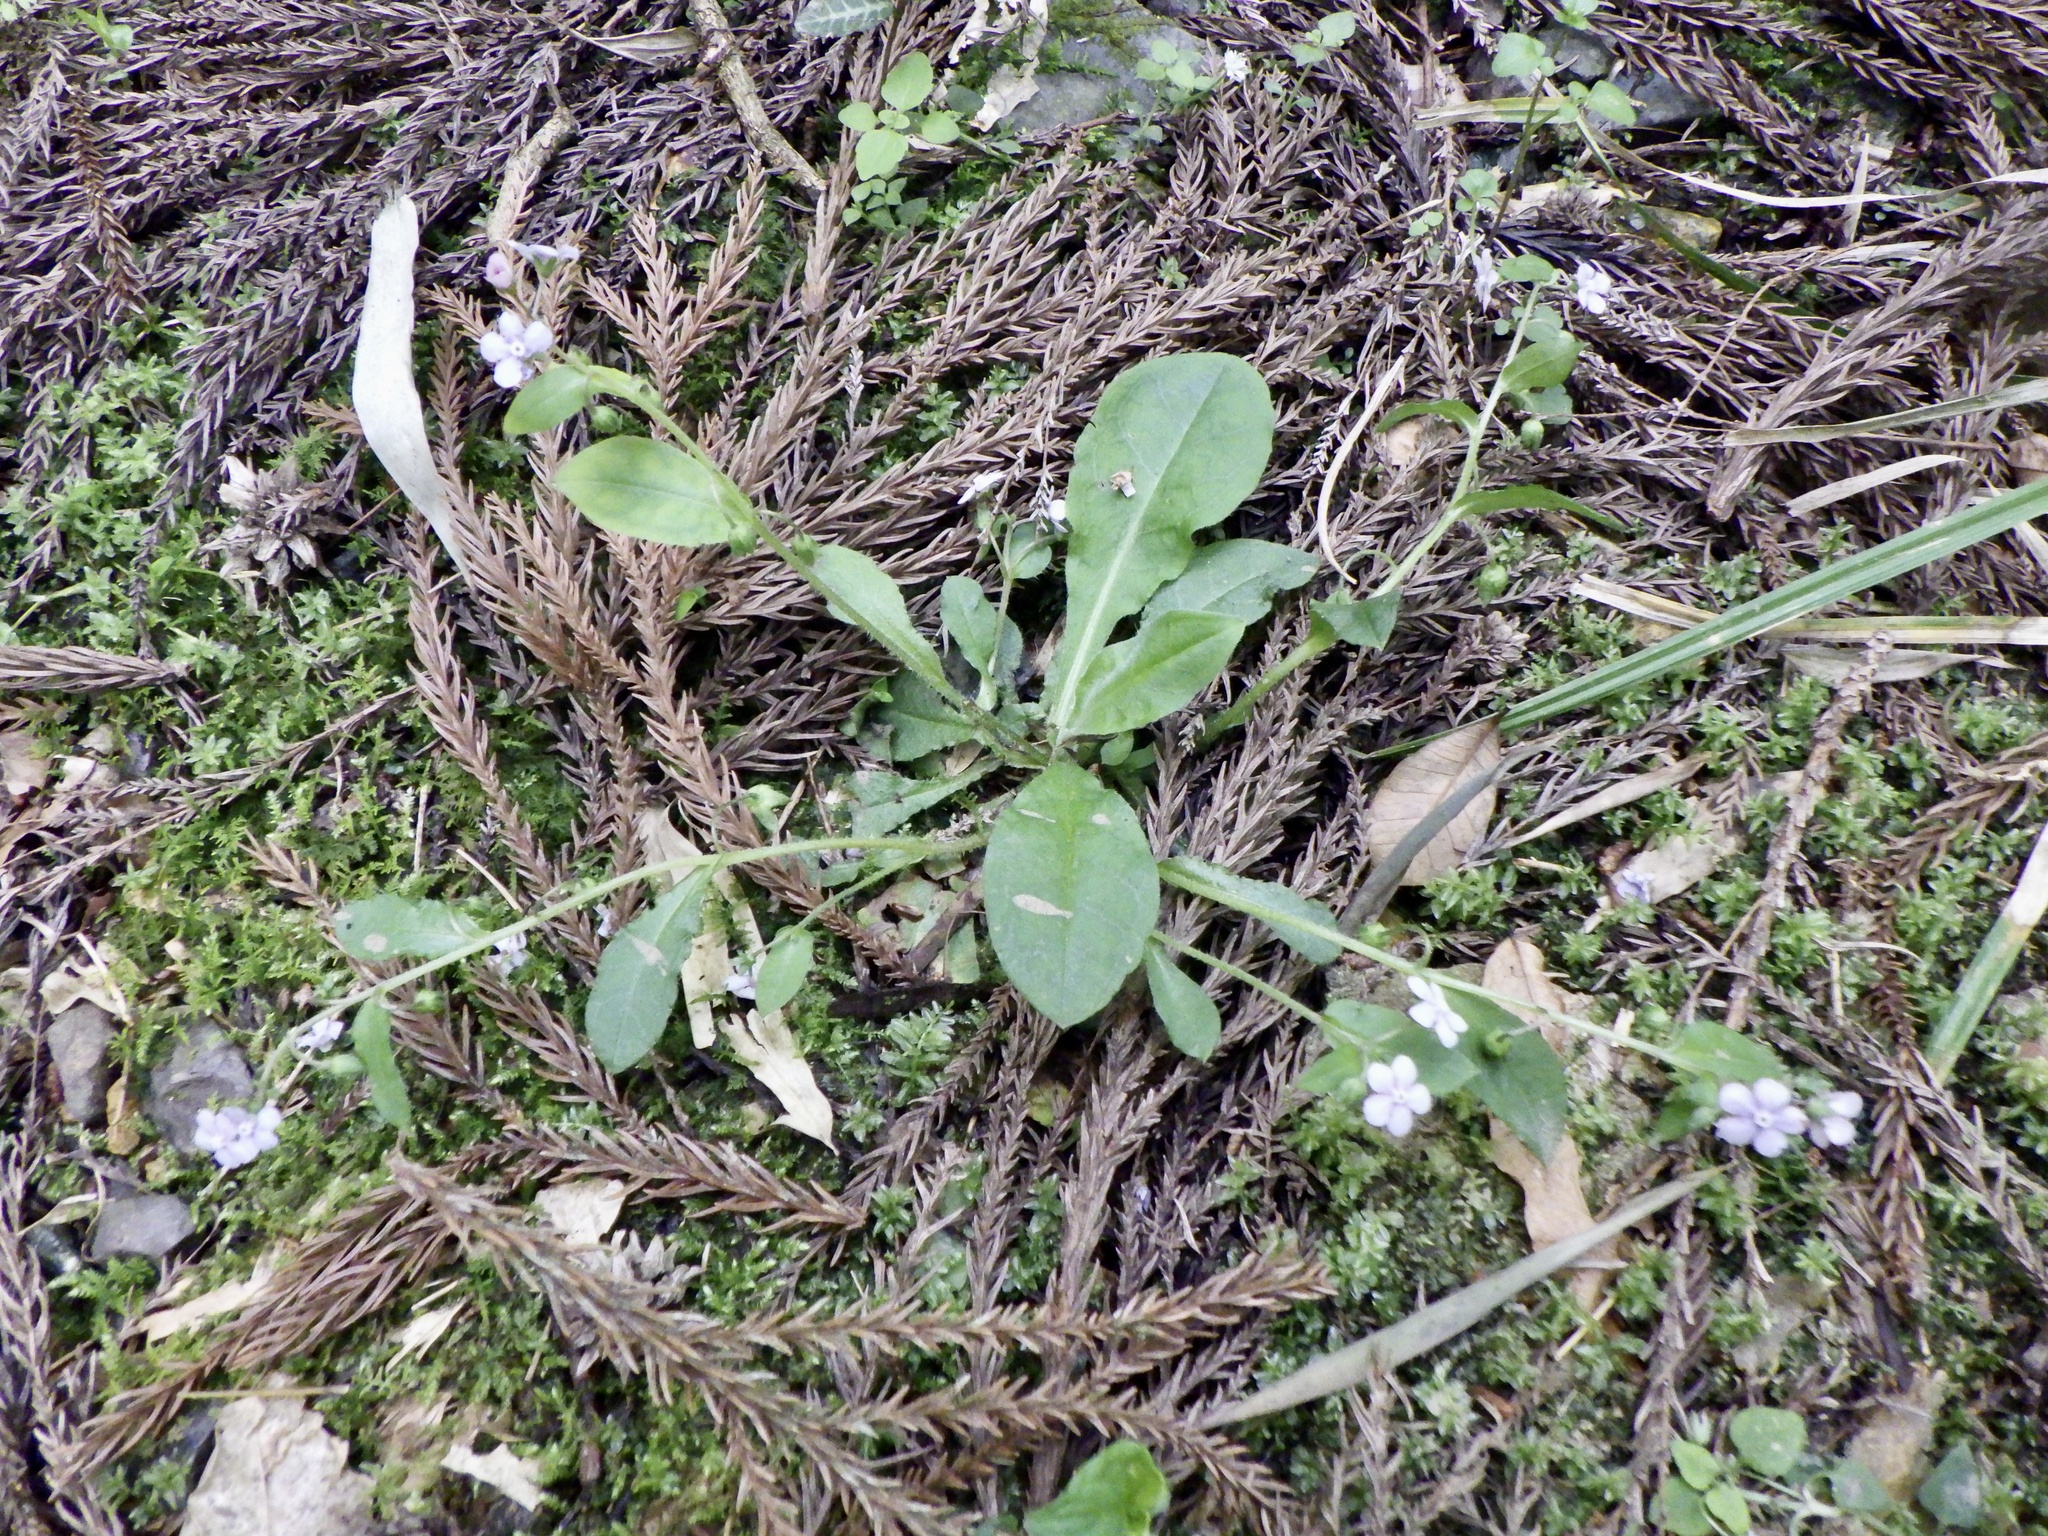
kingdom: Plantae
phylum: Tracheophyta
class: Magnoliopsida
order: Boraginales
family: Boraginaceae
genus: Nihon
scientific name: Nihon japonicum
